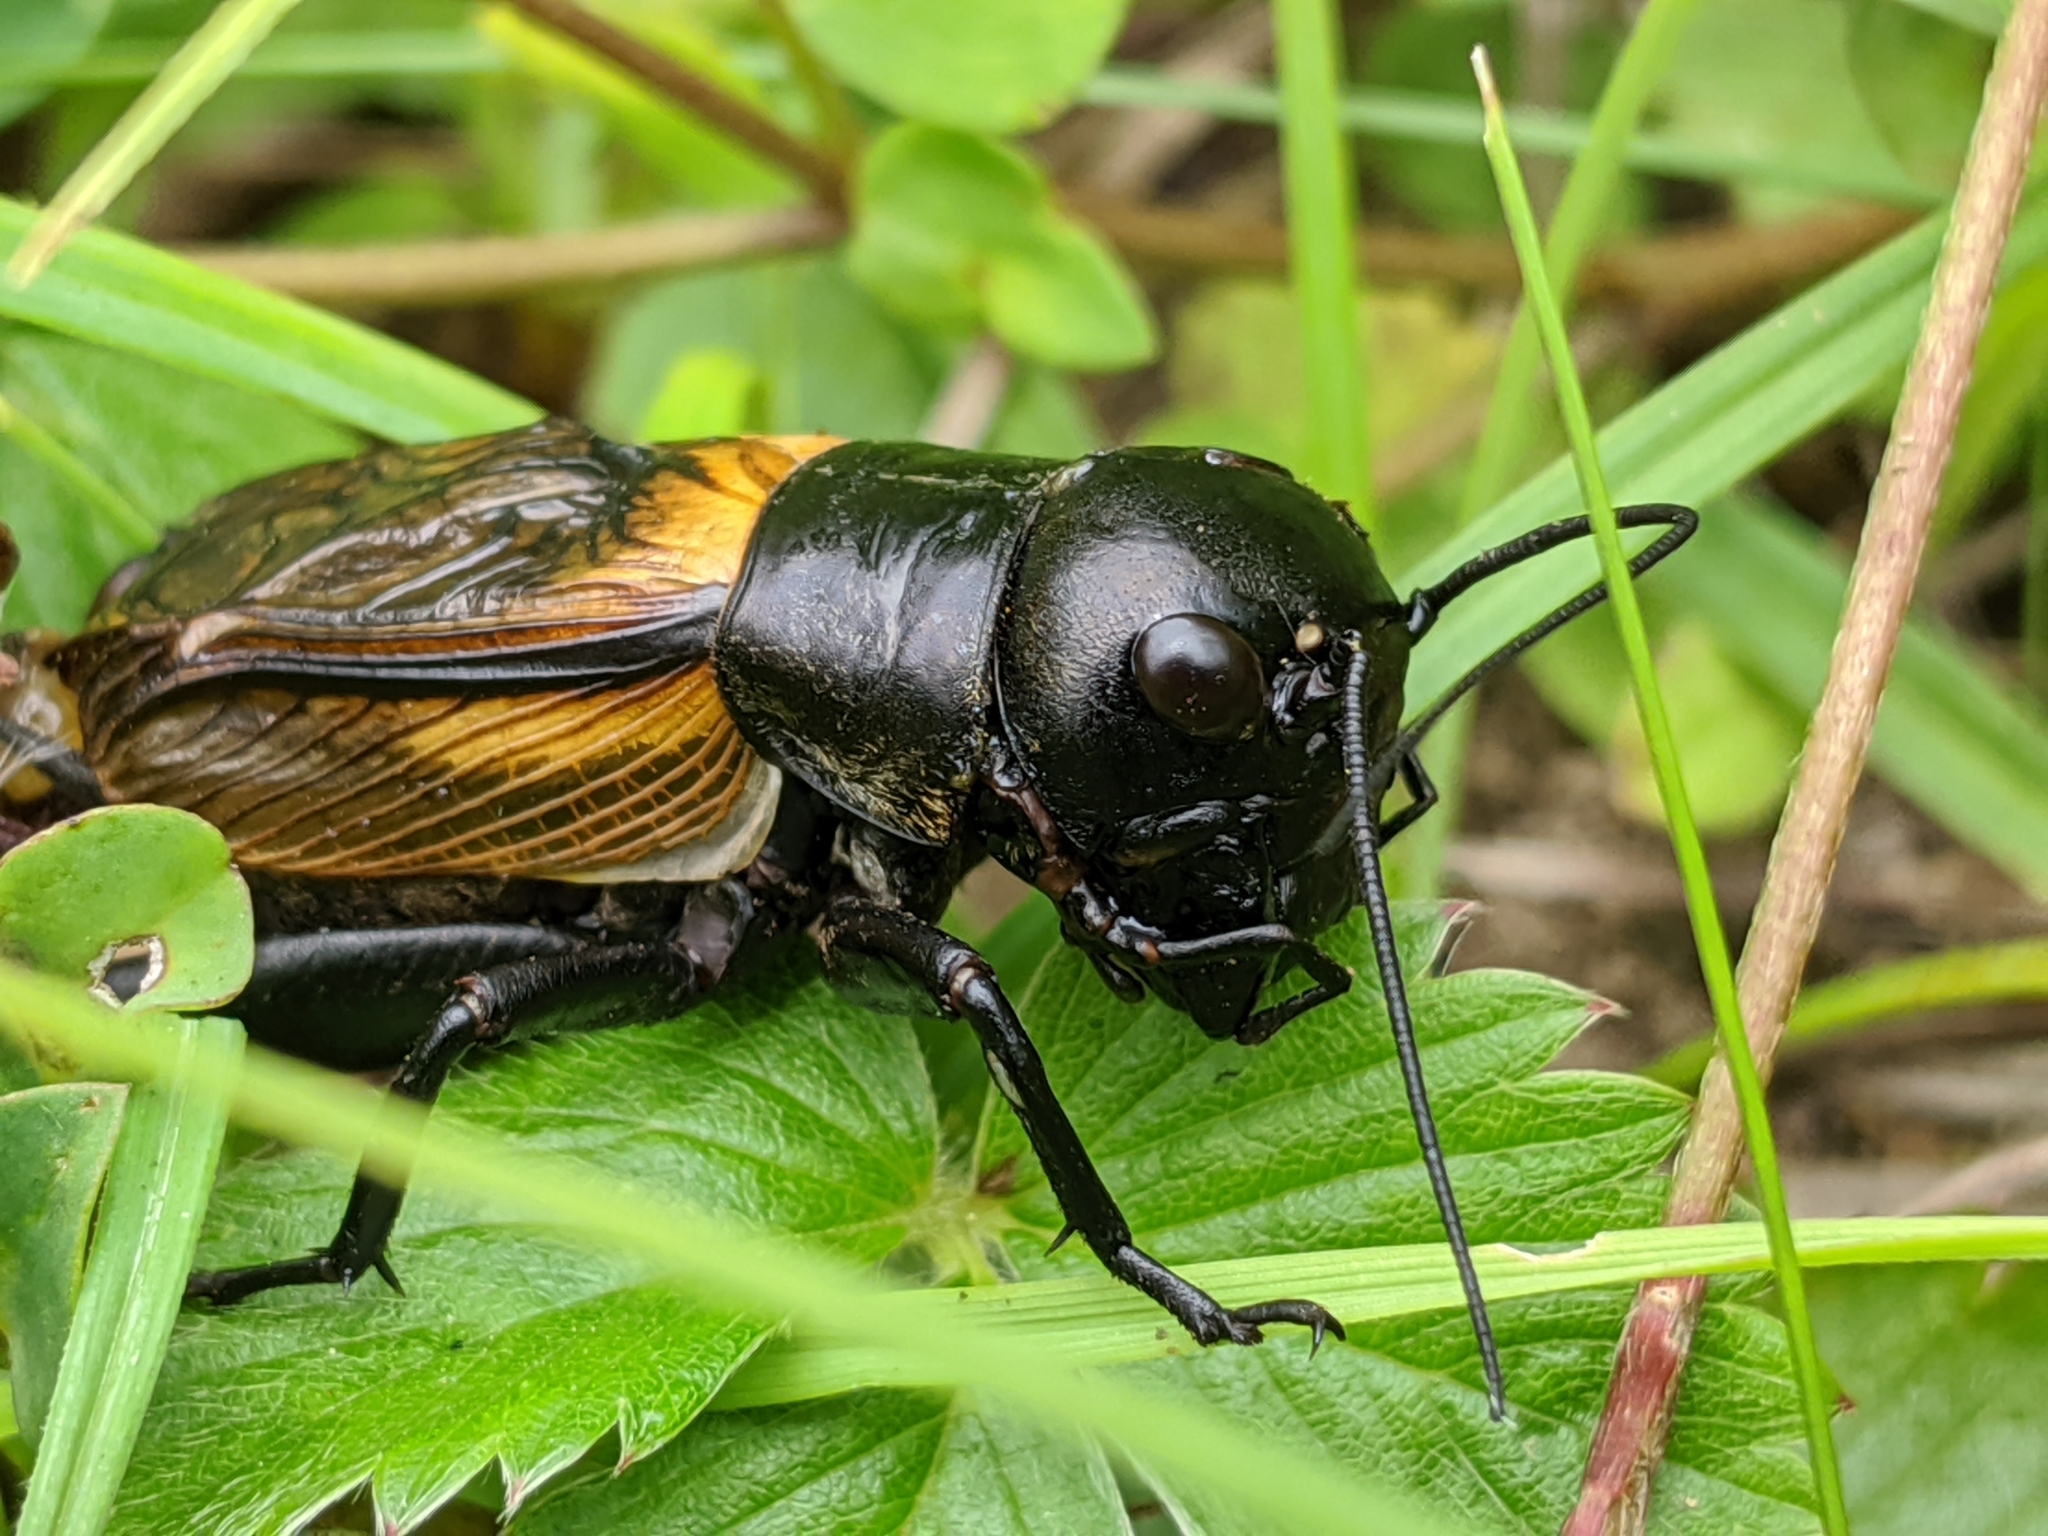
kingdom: Animalia
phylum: Arthropoda
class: Insecta
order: Orthoptera
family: Gryllidae
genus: Gryllus
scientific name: Gryllus campestris
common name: Field cricket
